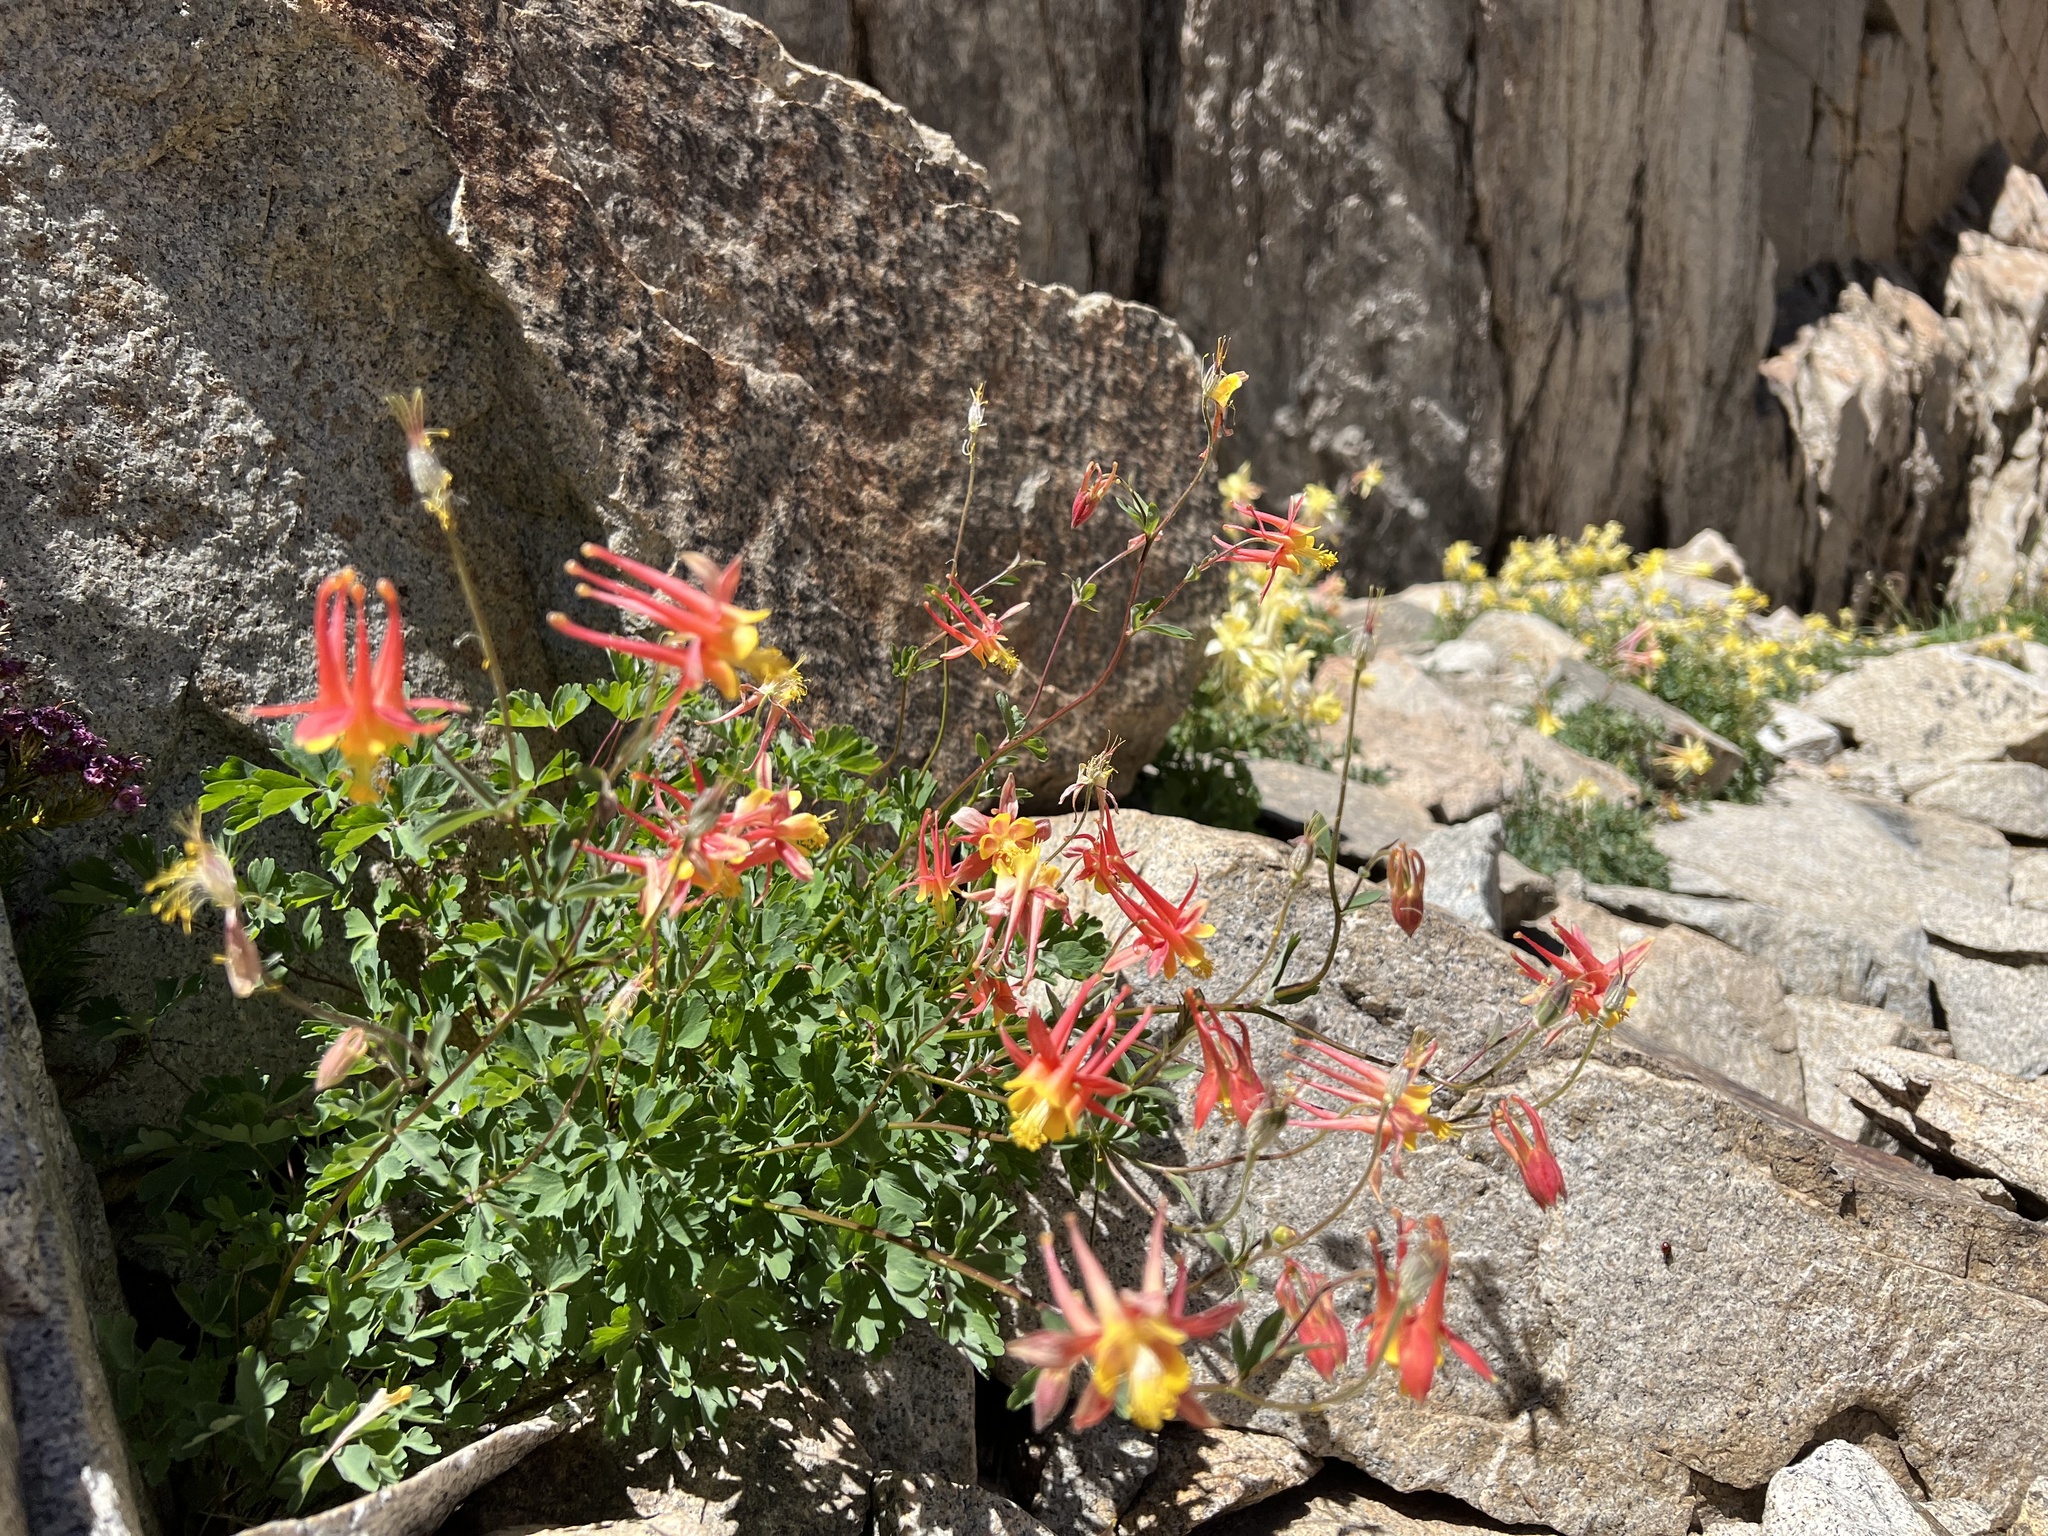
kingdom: Plantae
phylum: Tracheophyta
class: Magnoliopsida
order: Ranunculales
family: Ranunculaceae
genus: Aquilegia
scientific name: Aquilegia formosa
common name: Sitka columbine
